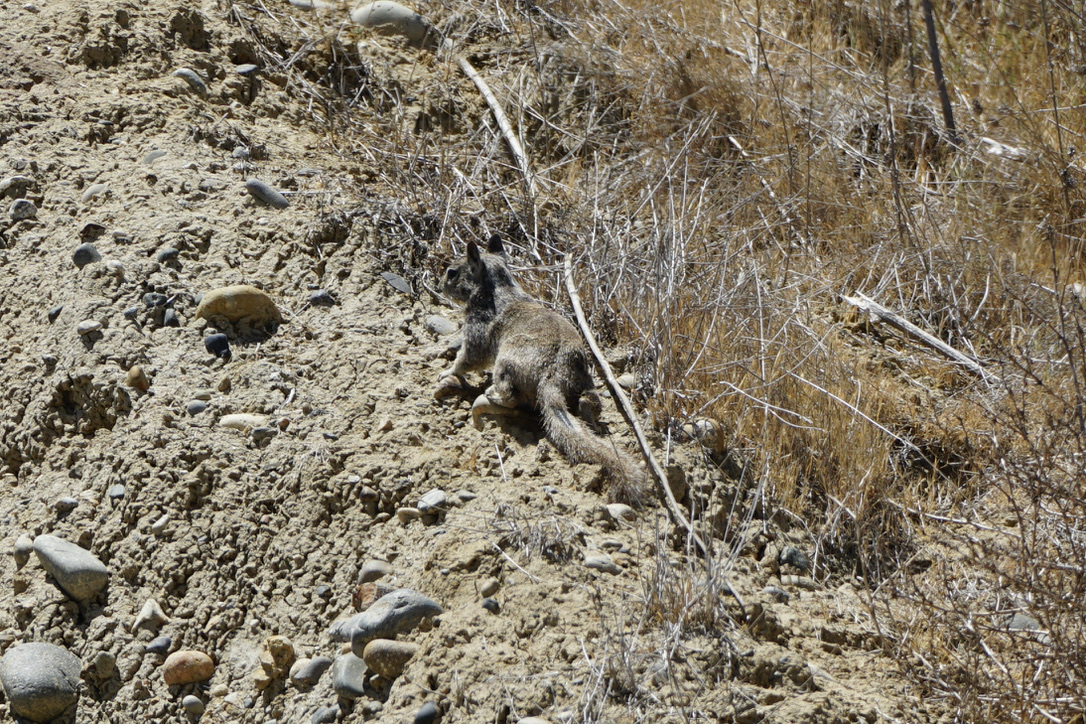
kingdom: Animalia
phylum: Chordata
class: Mammalia
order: Rodentia
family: Sciuridae
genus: Otospermophilus
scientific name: Otospermophilus beecheyi
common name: California ground squirrel
